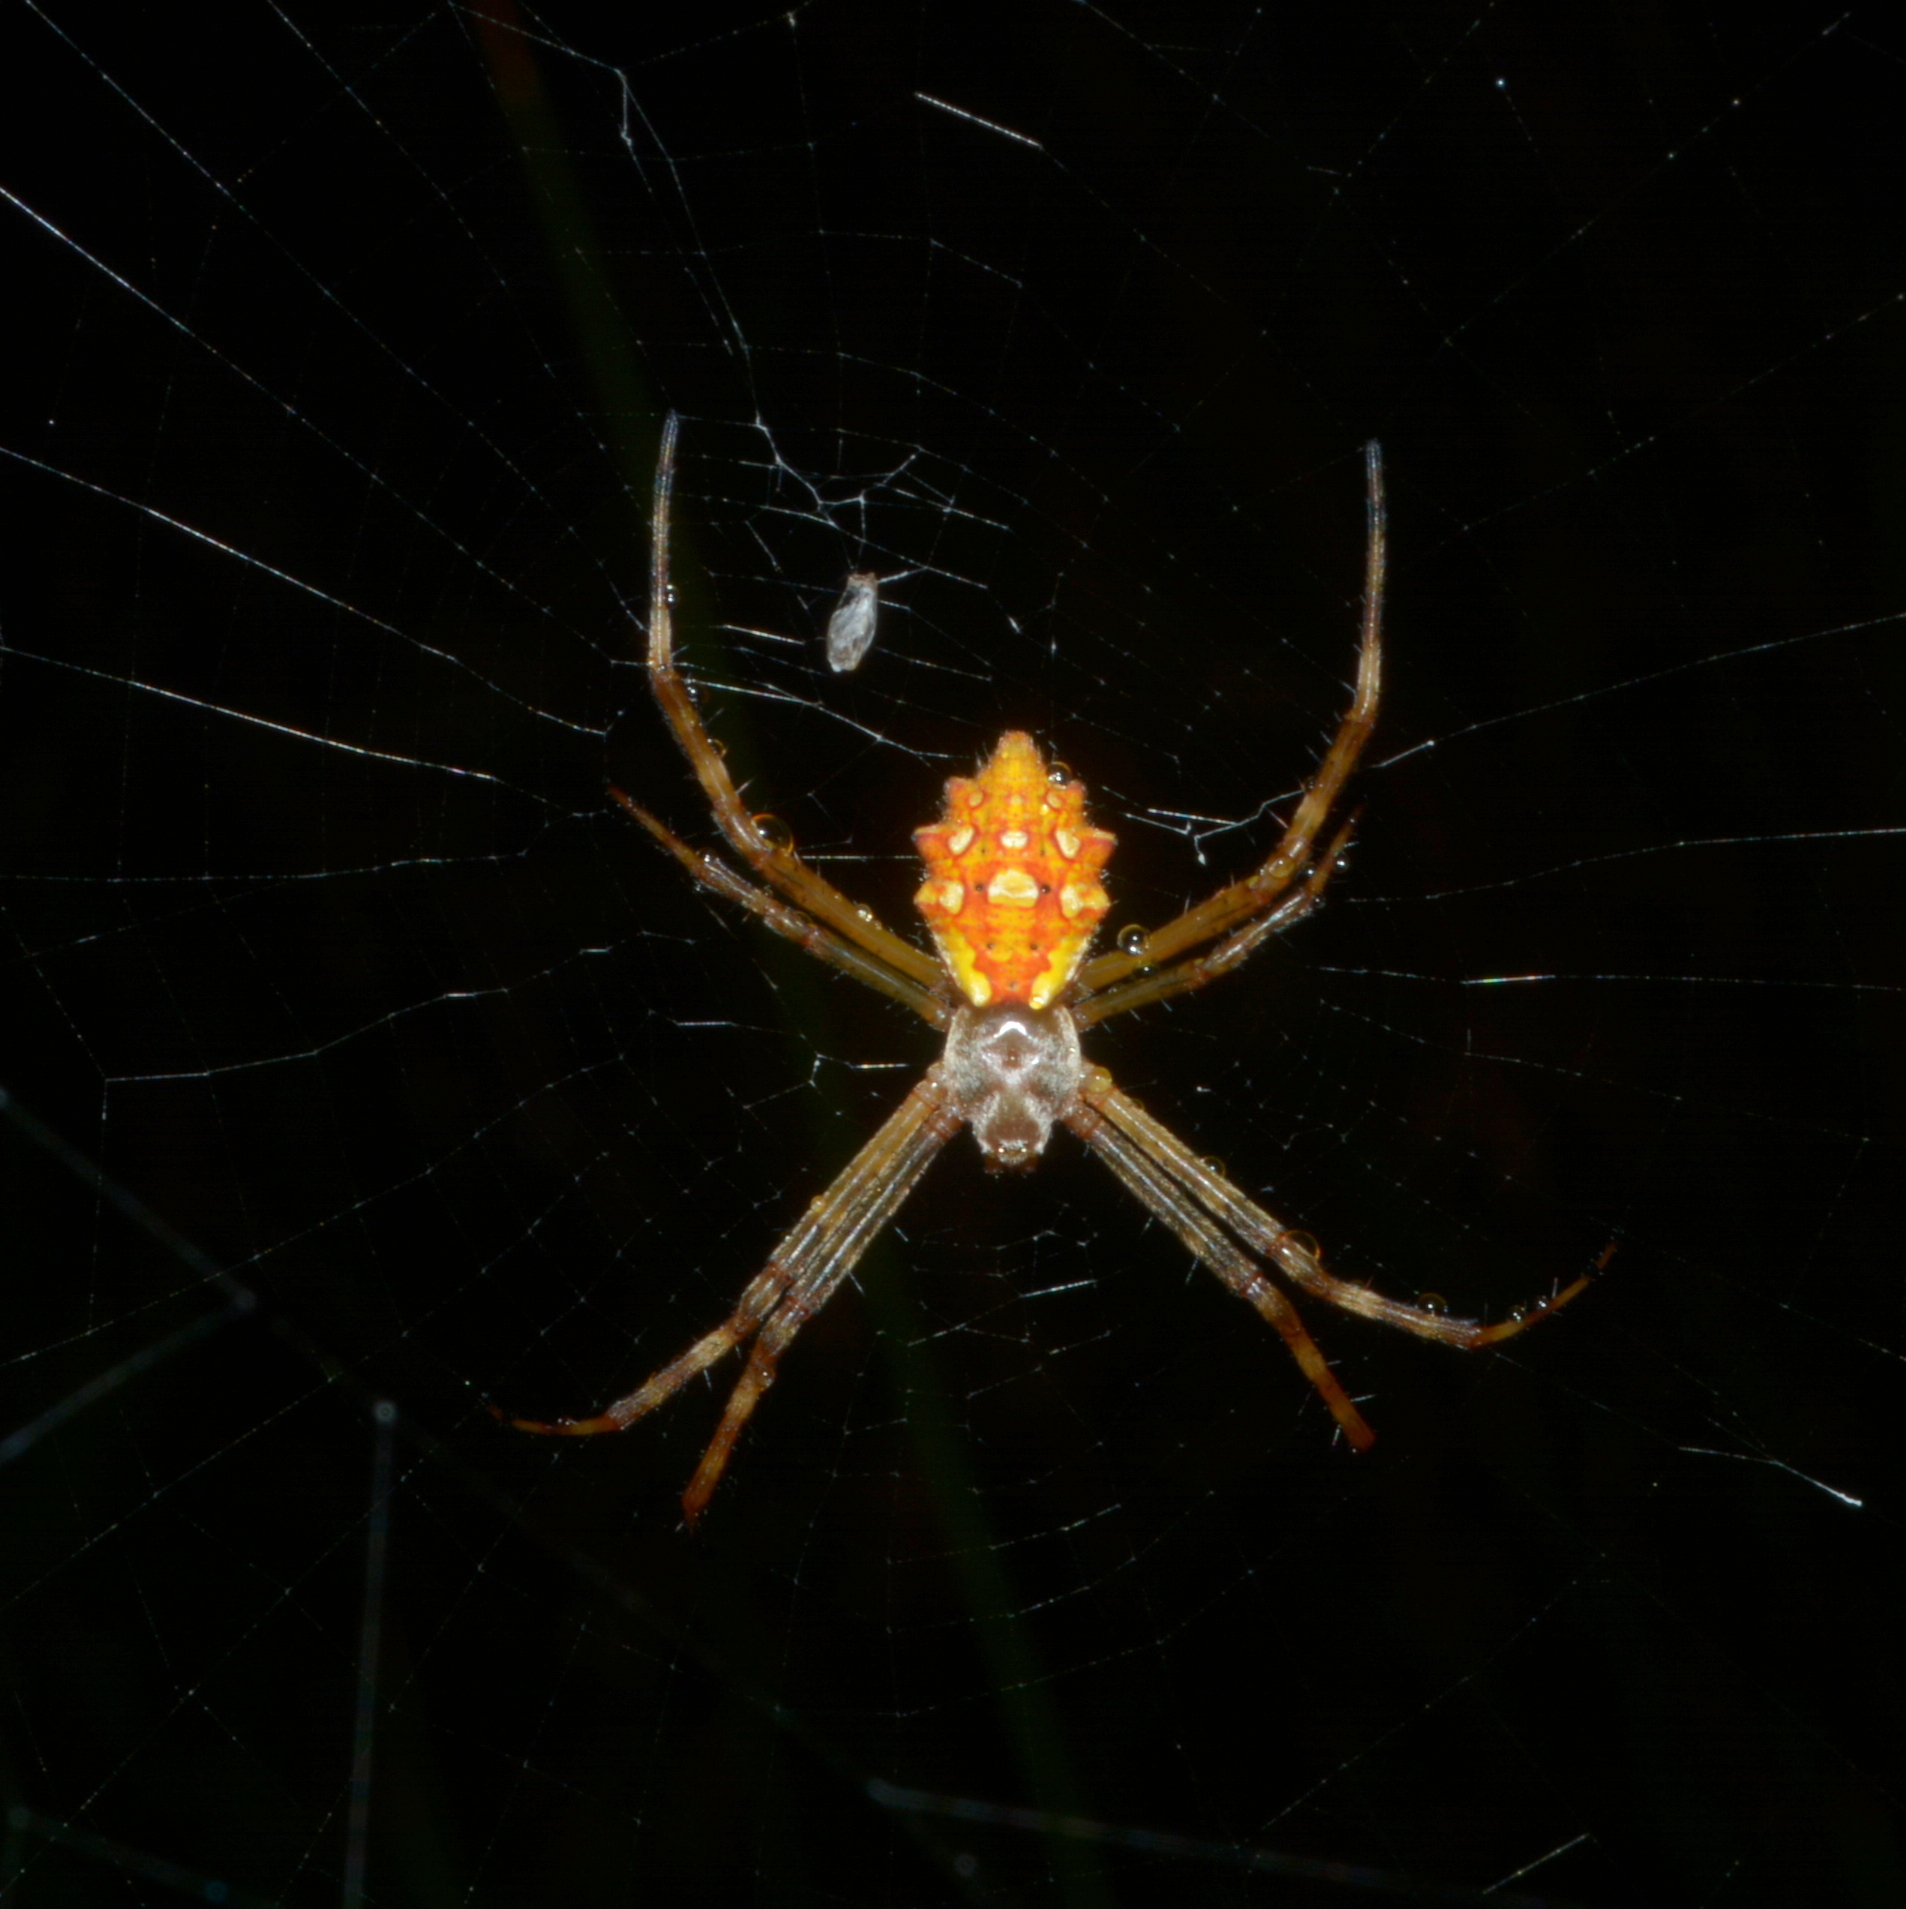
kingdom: Animalia
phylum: Arthropoda
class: Arachnida
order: Araneae
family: Araneidae
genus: Argiope
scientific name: Argiope argentata
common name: Orb weavers
